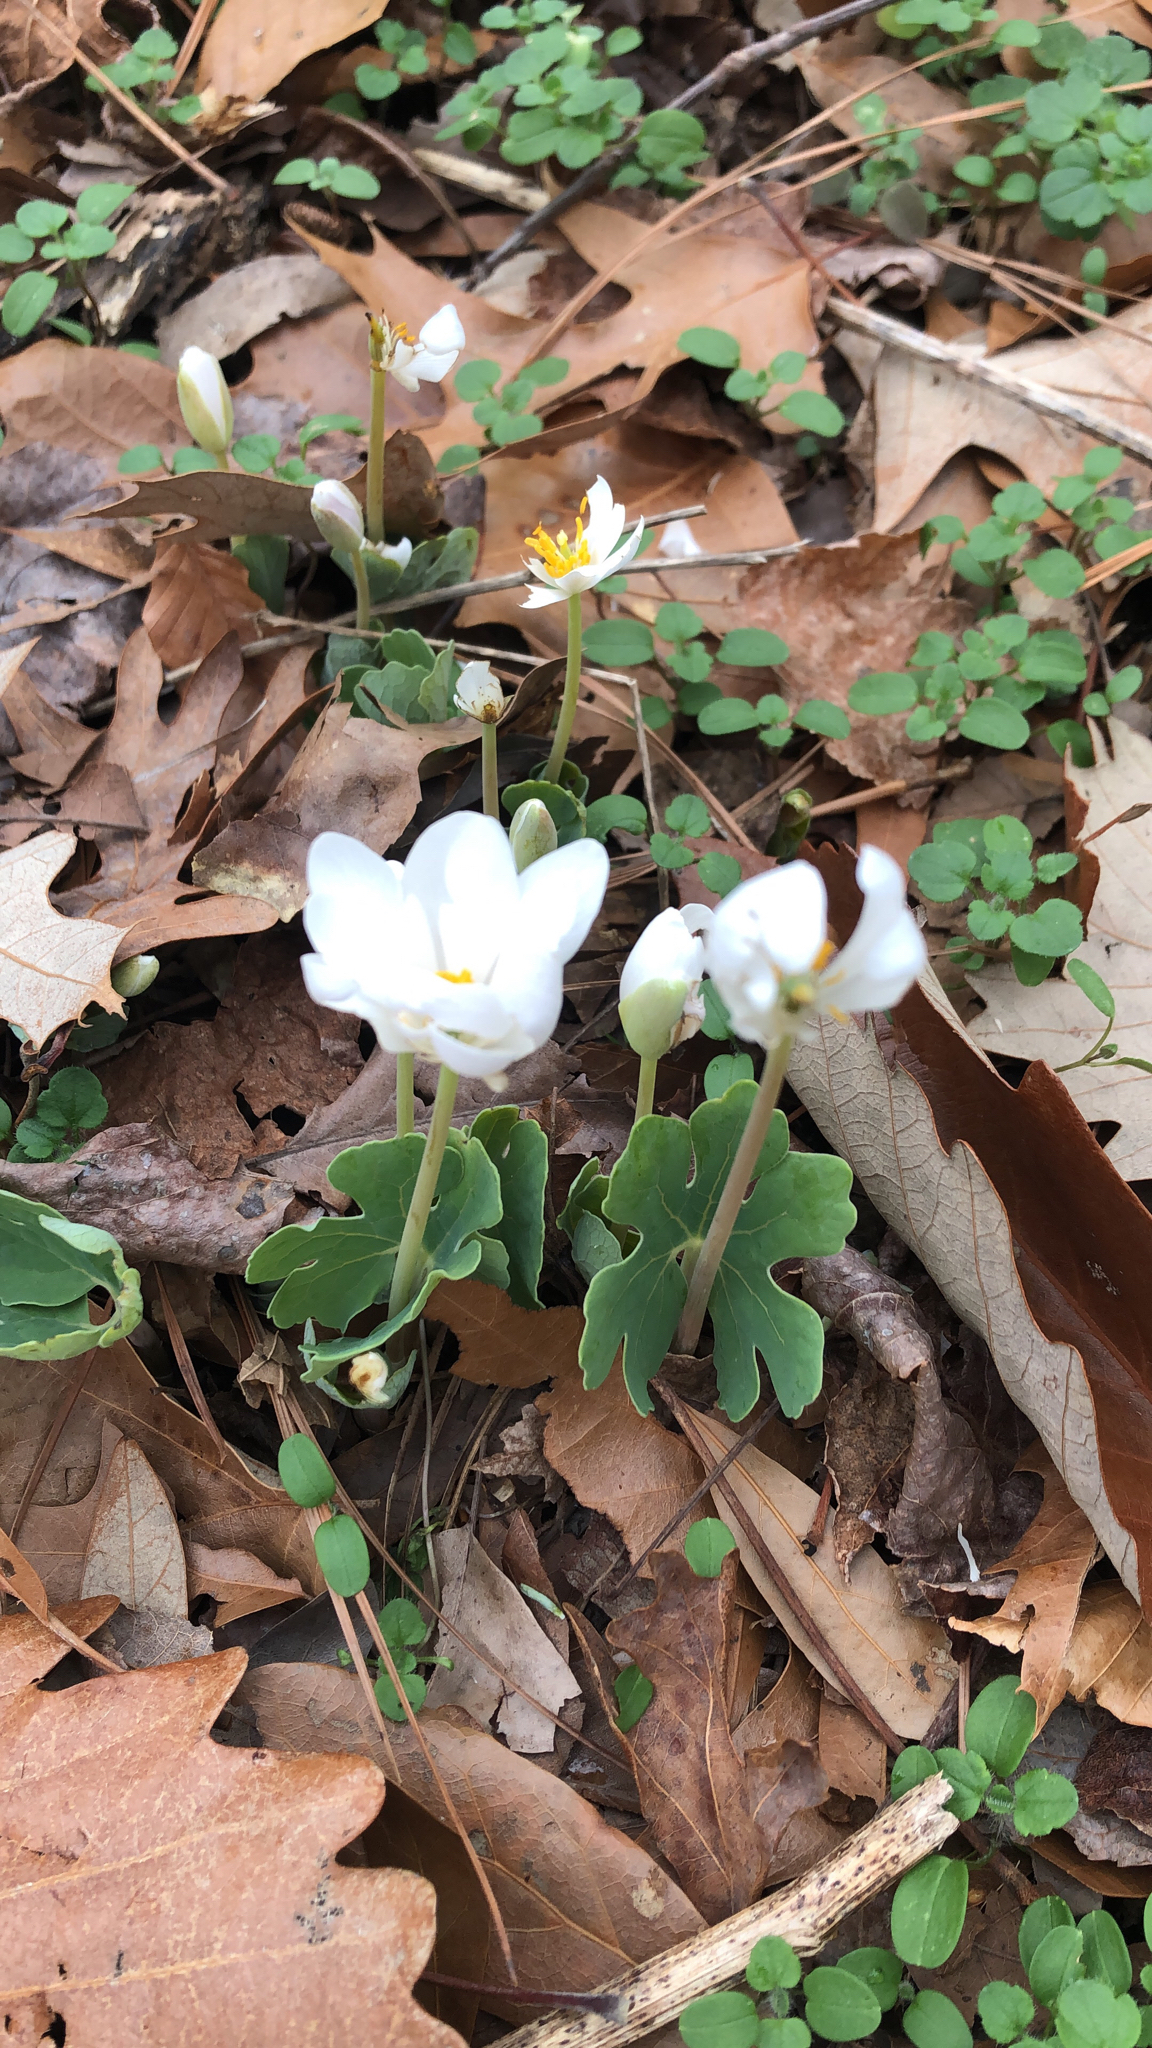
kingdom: Plantae
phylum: Tracheophyta
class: Magnoliopsida
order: Ranunculales
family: Papaveraceae
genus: Sanguinaria
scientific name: Sanguinaria canadensis
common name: Bloodroot
